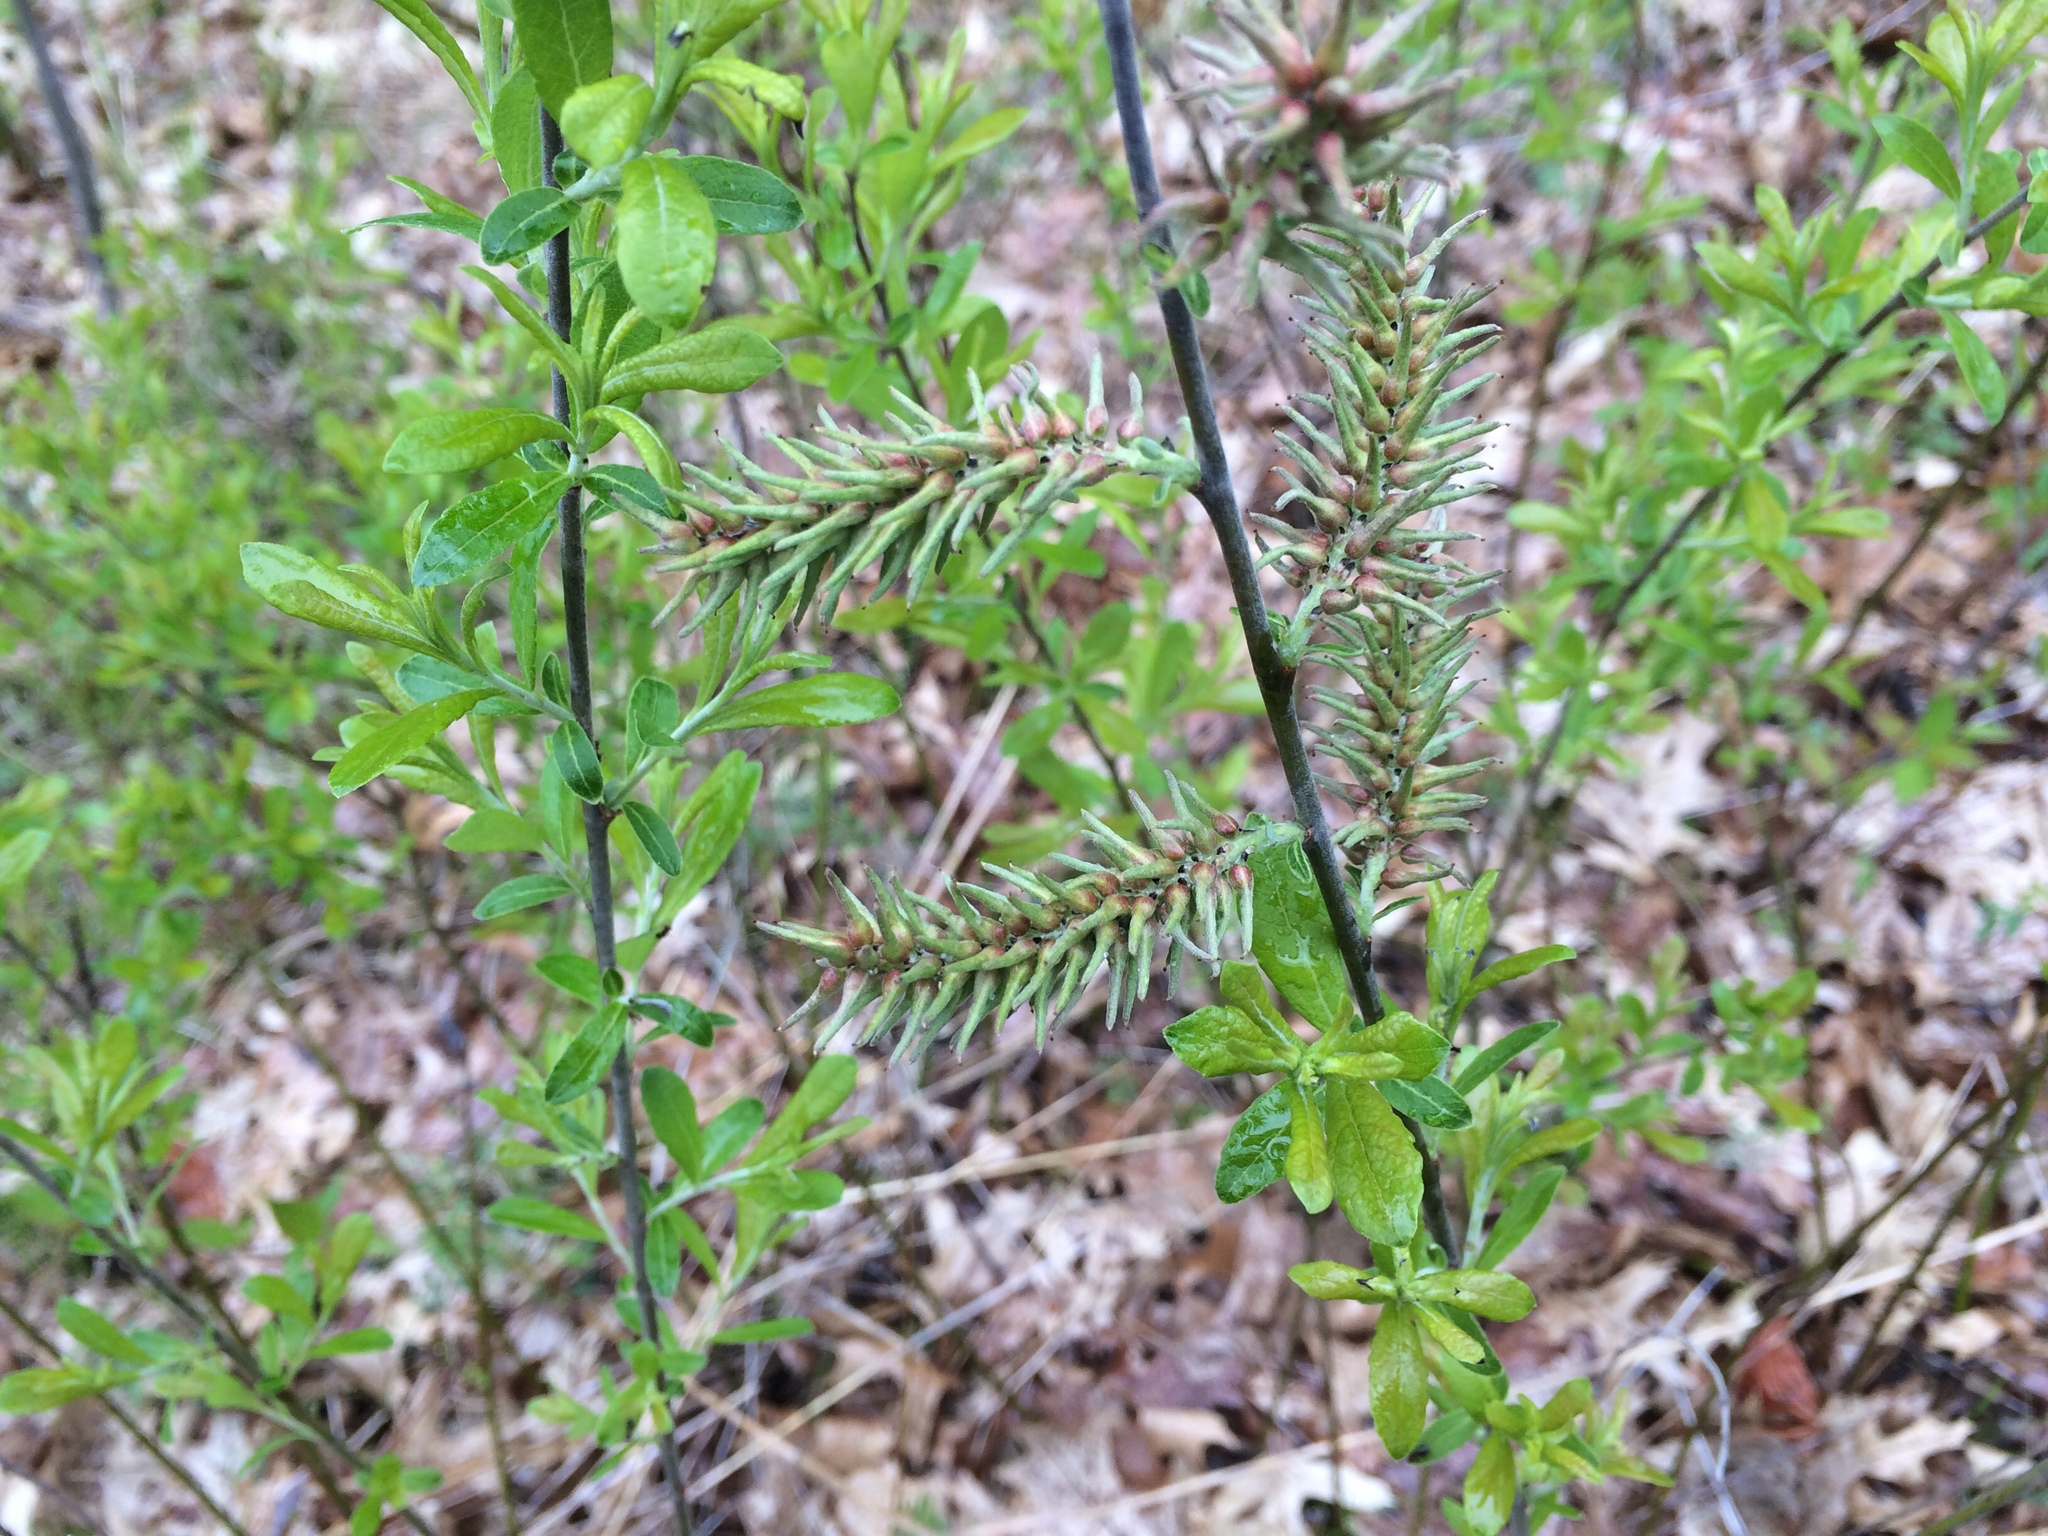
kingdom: Plantae
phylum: Tracheophyta
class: Magnoliopsida
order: Malpighiales
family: Salicaceae
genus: Salix
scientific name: Salix humilis
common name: Prairie willow
